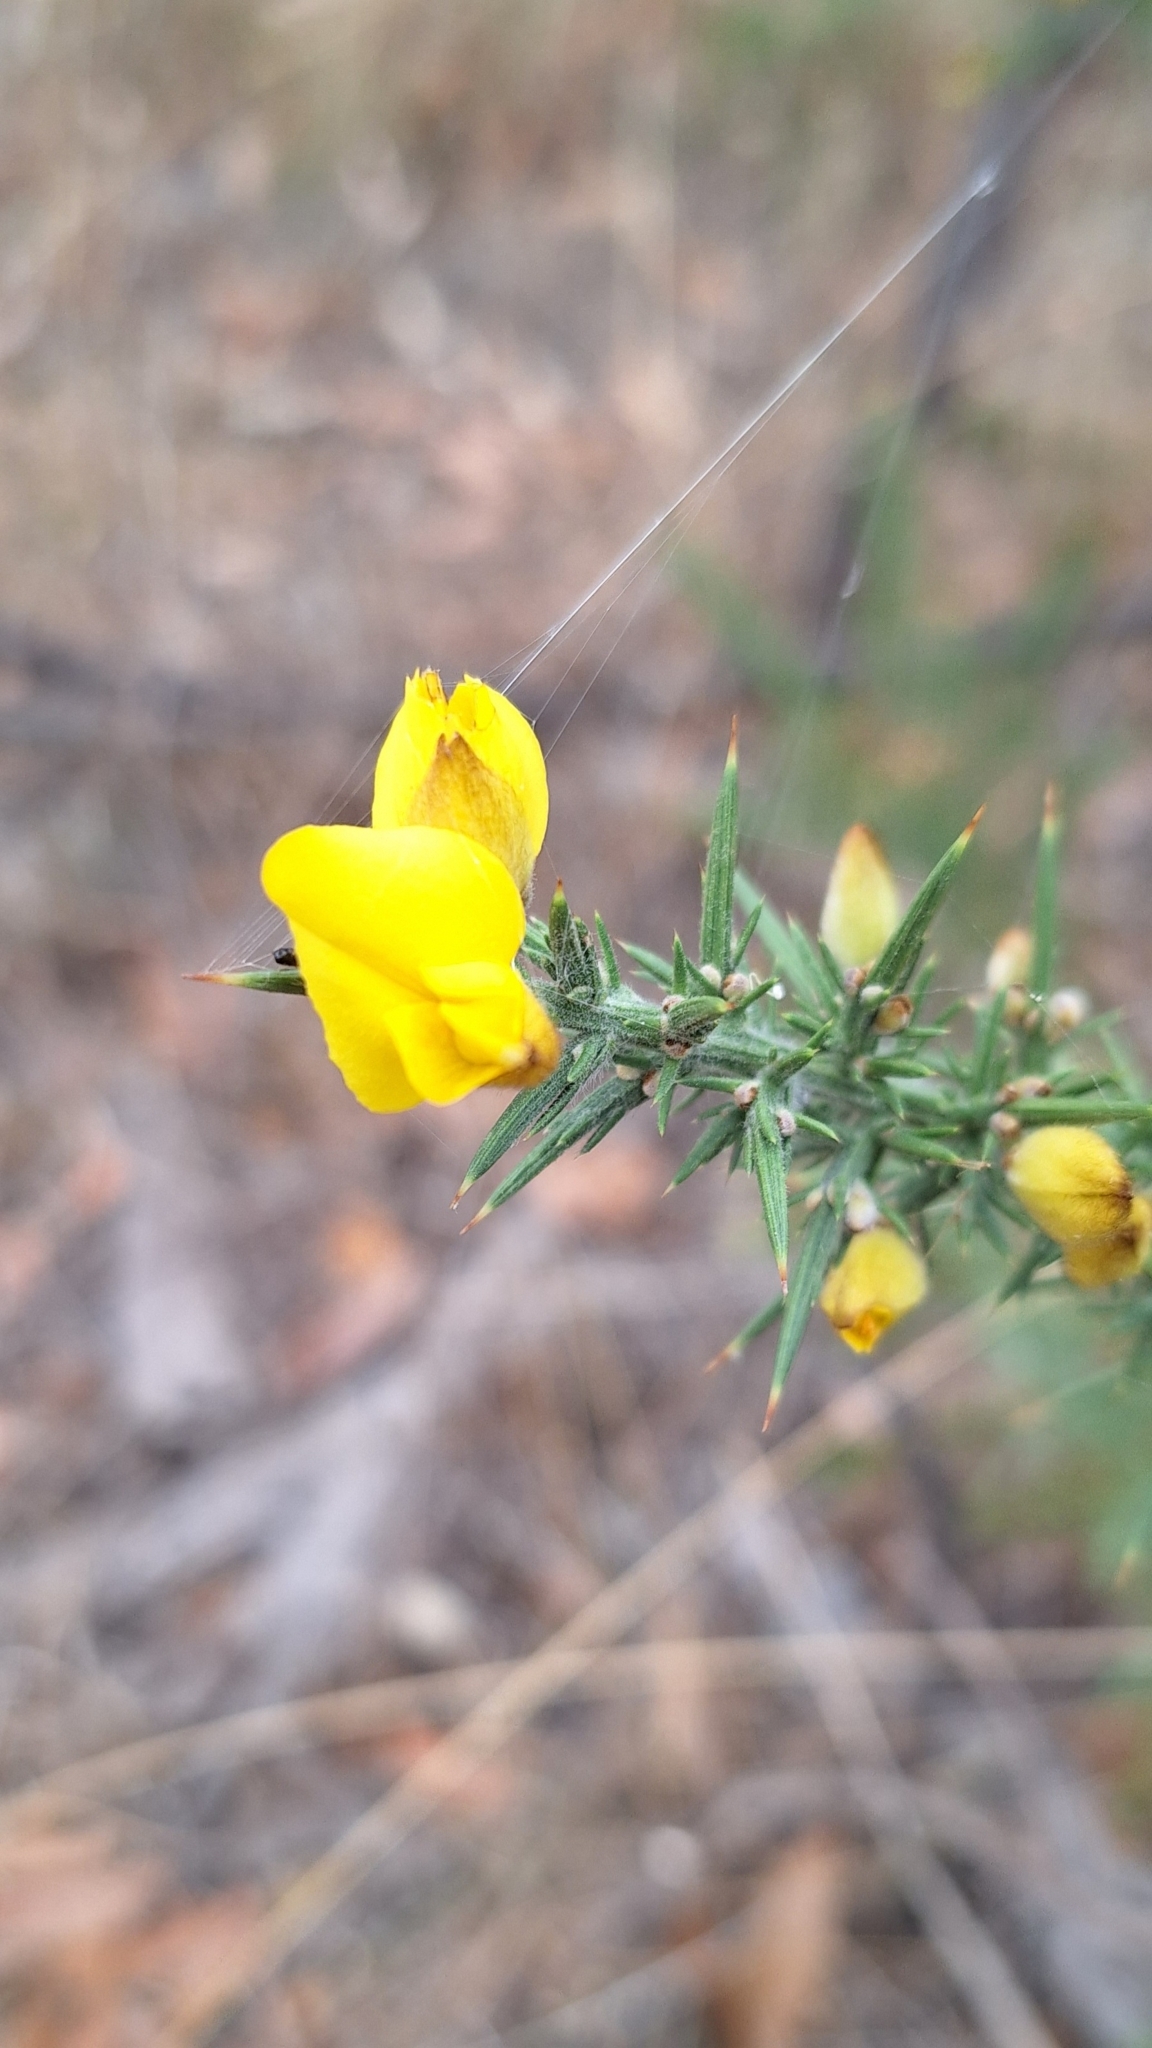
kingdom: Plantae
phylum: Tracheophyta
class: Magnoliopsida
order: Fabales
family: Fabaceae
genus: Ulex
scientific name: Ulex europaeus
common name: Common gorse
